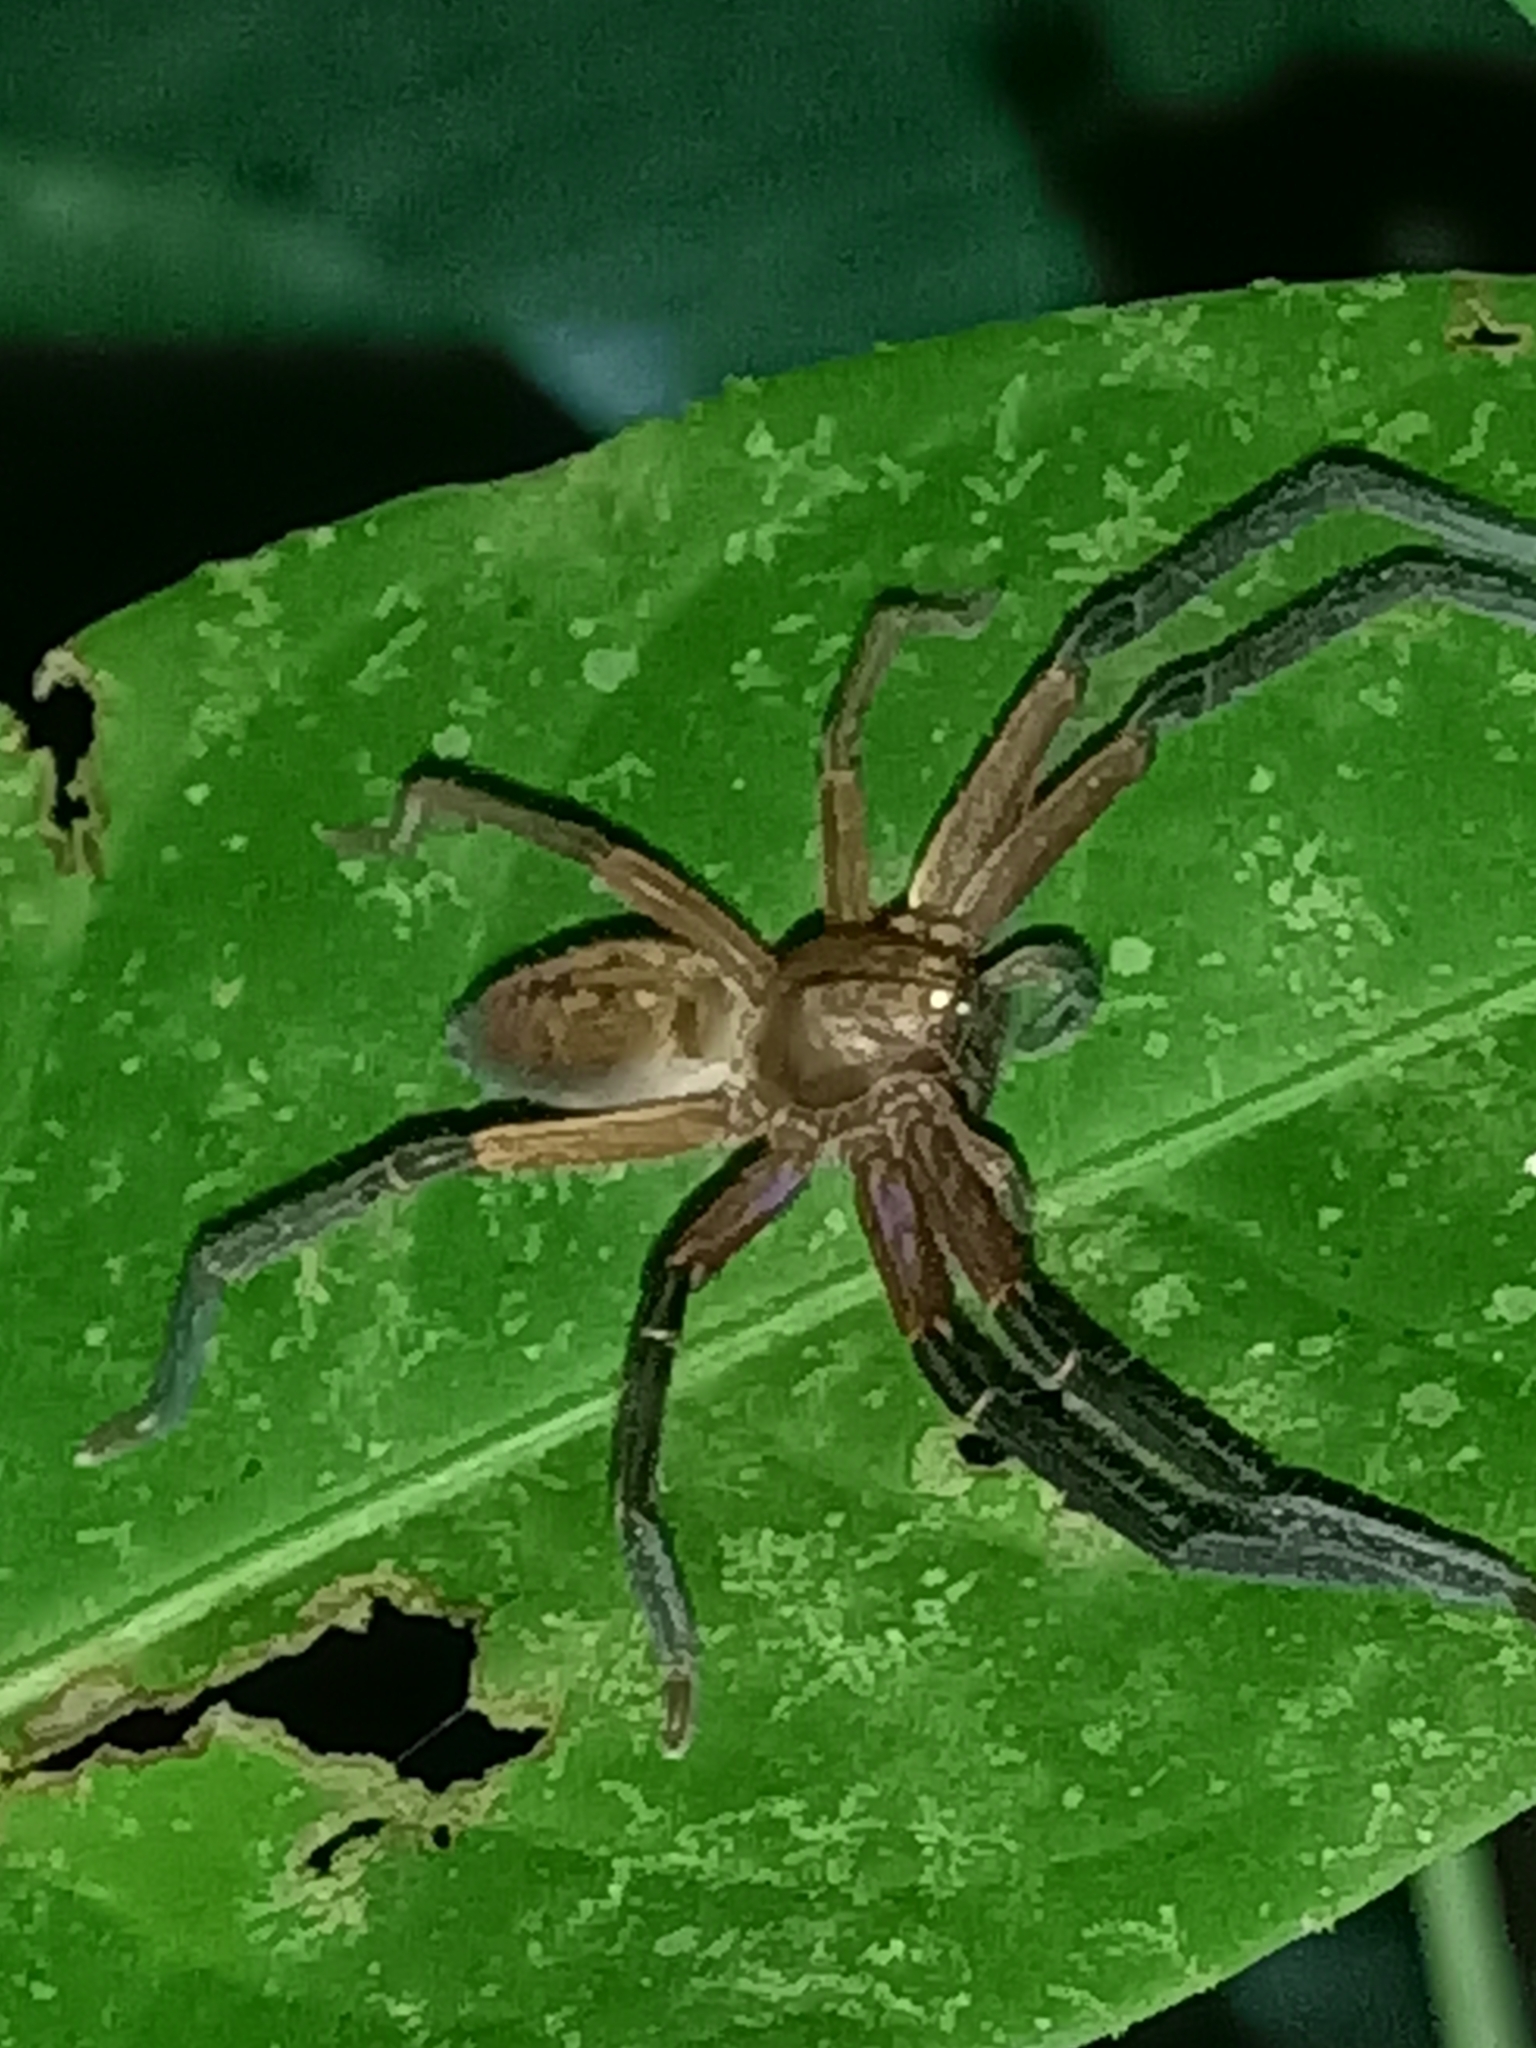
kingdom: Animalia
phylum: Arthropoda
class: Arachnida
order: Araneae
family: Sparassidae
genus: Sadala
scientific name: Sadala velox
